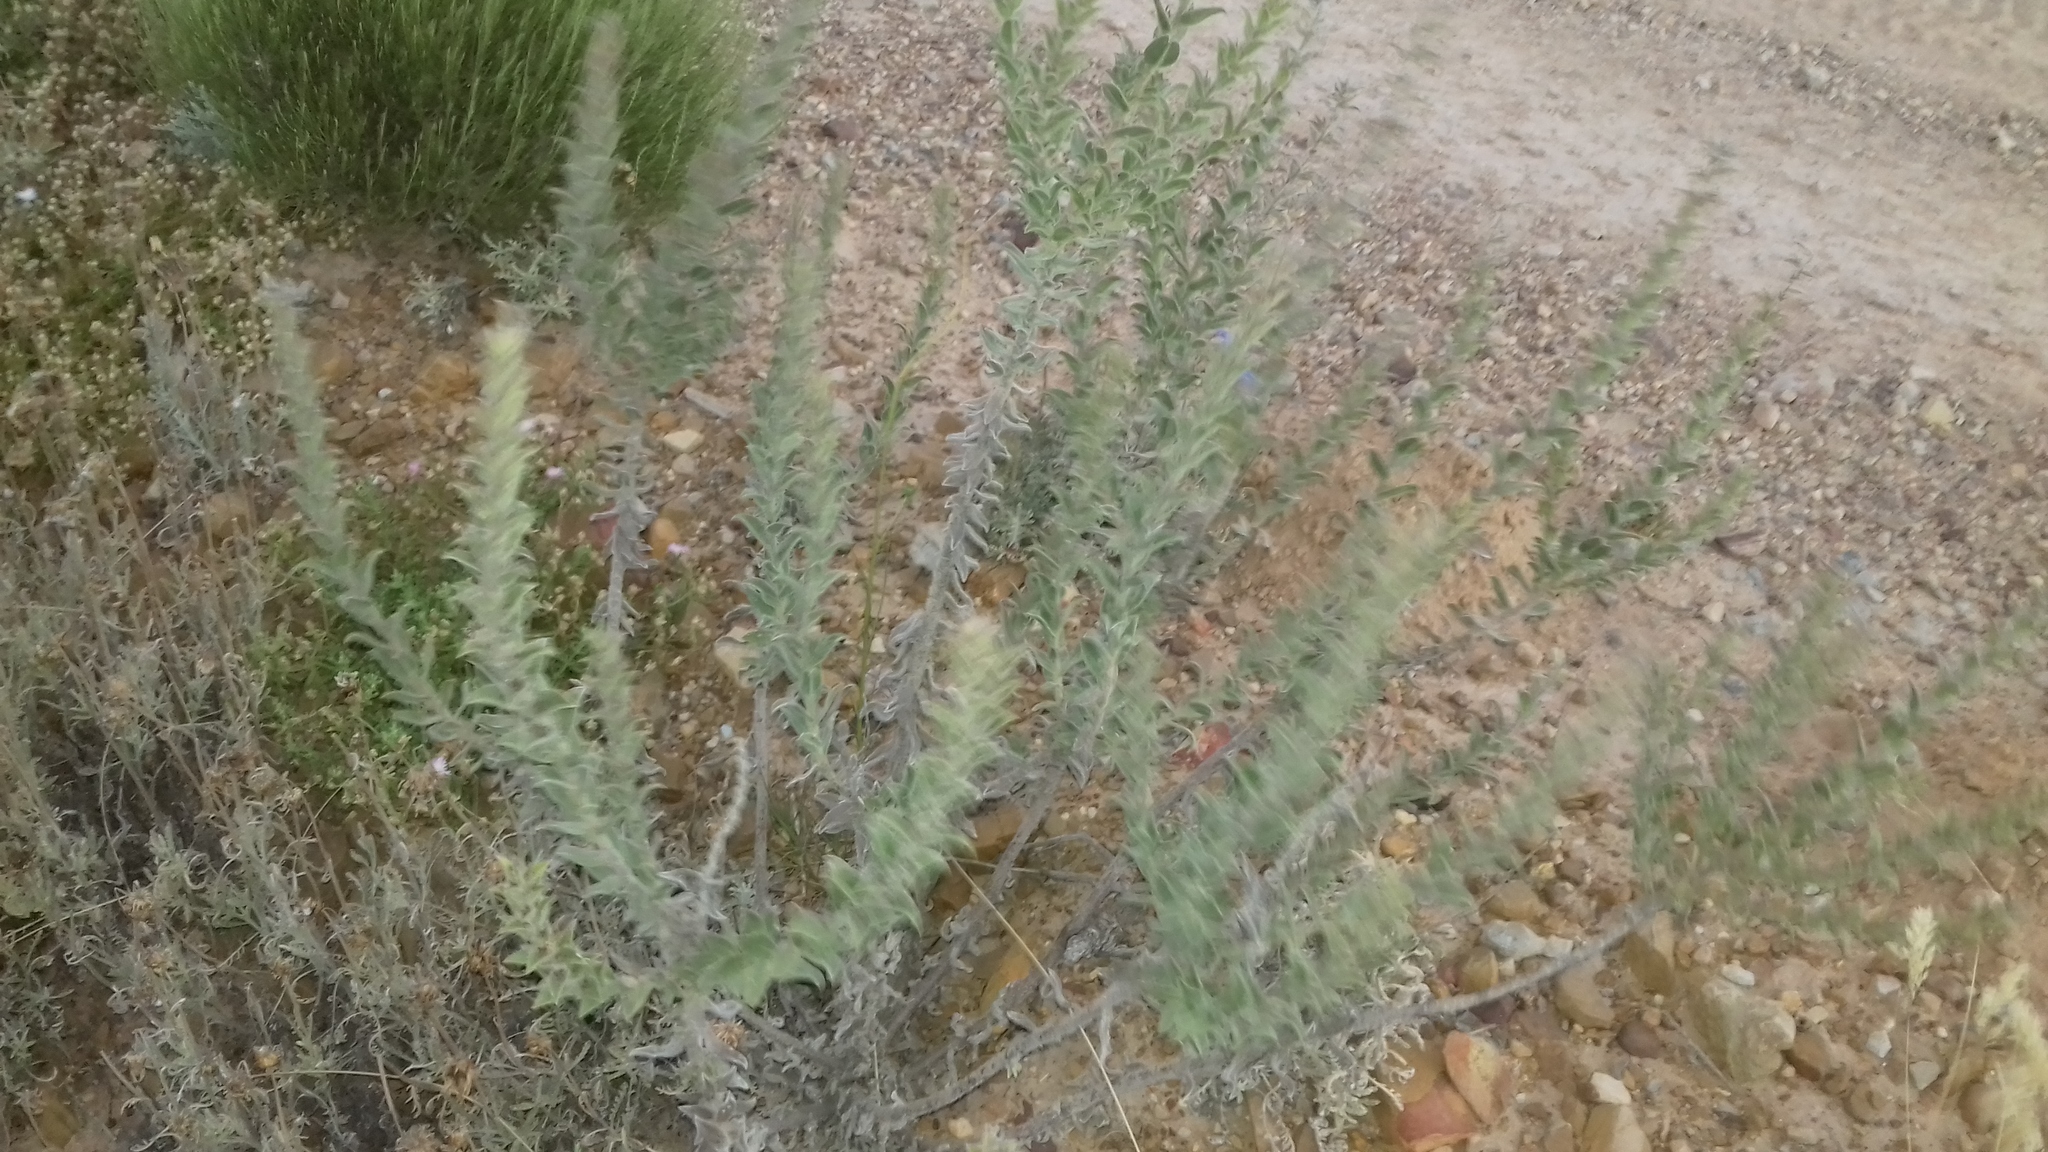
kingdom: Plantae
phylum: Tracheophyta
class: Magnoliopsida
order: Boraginales
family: Boraginaceae
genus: Lobostemon
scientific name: Lobostemon argenteus
